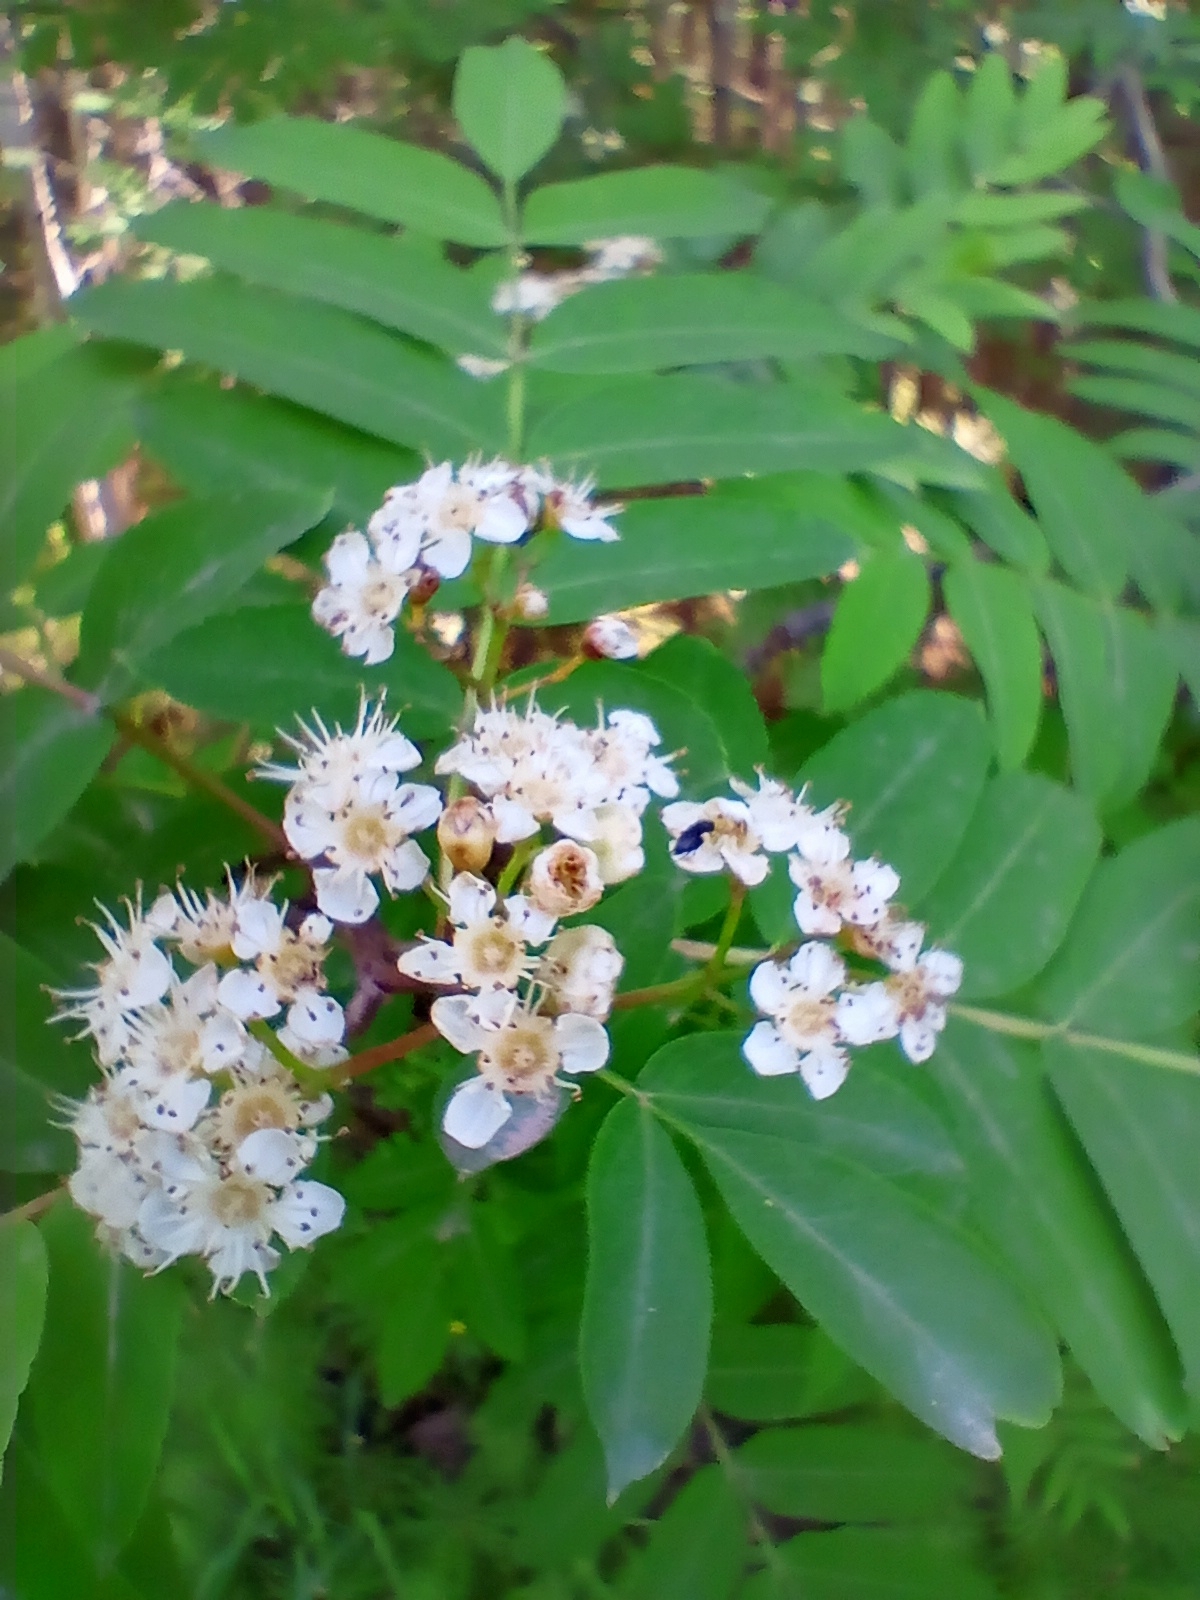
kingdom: Plantae
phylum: Tracheophyta
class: Magnoliopsida
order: Rosales
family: Rosaceae
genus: Sorbus
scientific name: Sorbus aucuparia
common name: Rowan
